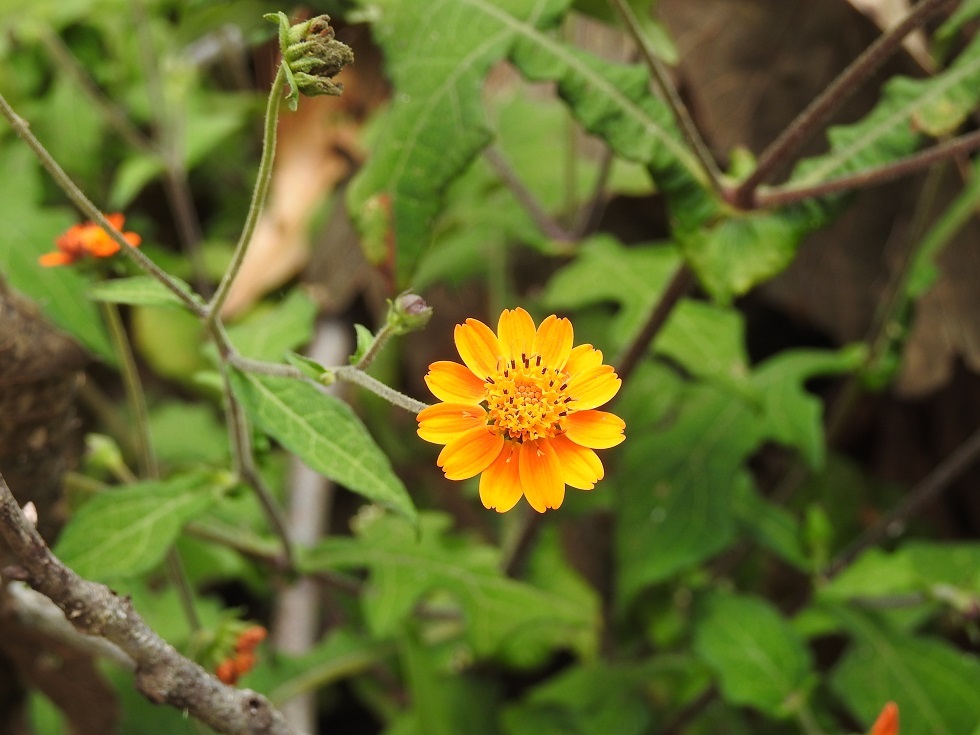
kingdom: Plantae
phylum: Tracheophyta
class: Magnoliopsida
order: Asterales
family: Asteraceae
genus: Smallanthus
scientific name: Smallanthus oaxacanus
